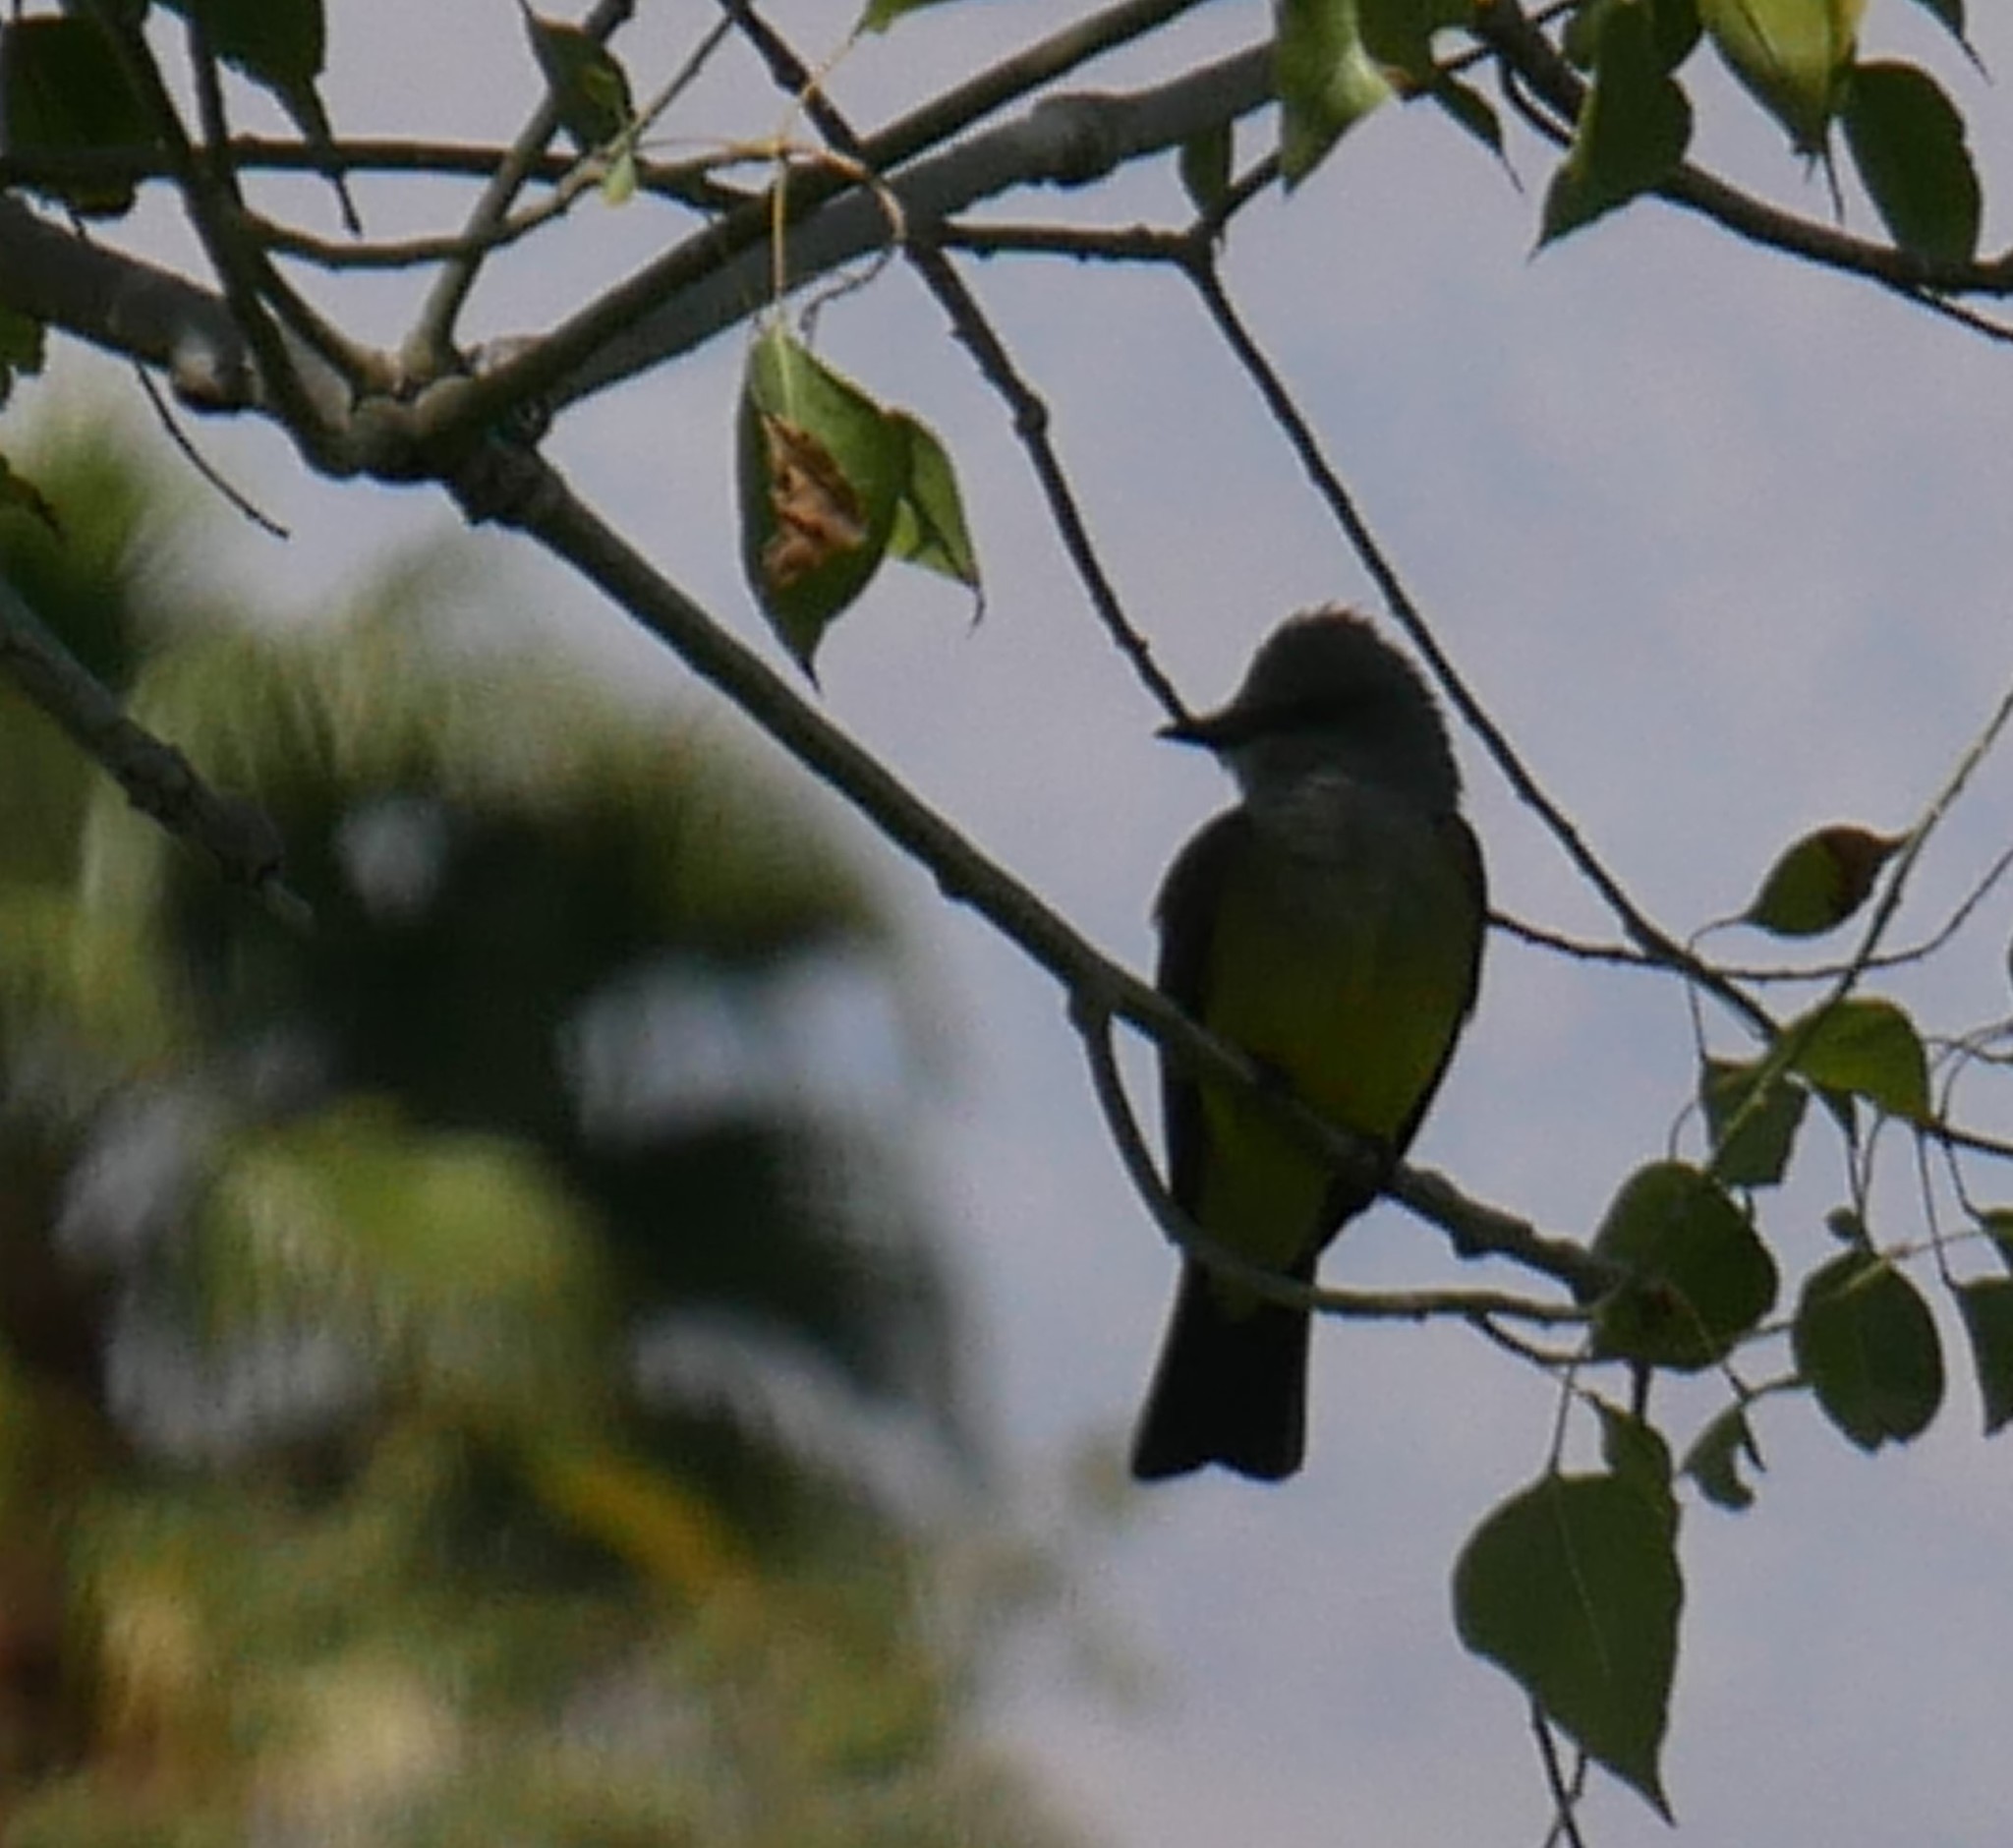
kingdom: Animalia
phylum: Chordata
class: Aves
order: Passeriformes
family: Tyrannidae
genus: Tyrannus
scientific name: Tyrannus verticalis
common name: Western kingbird
